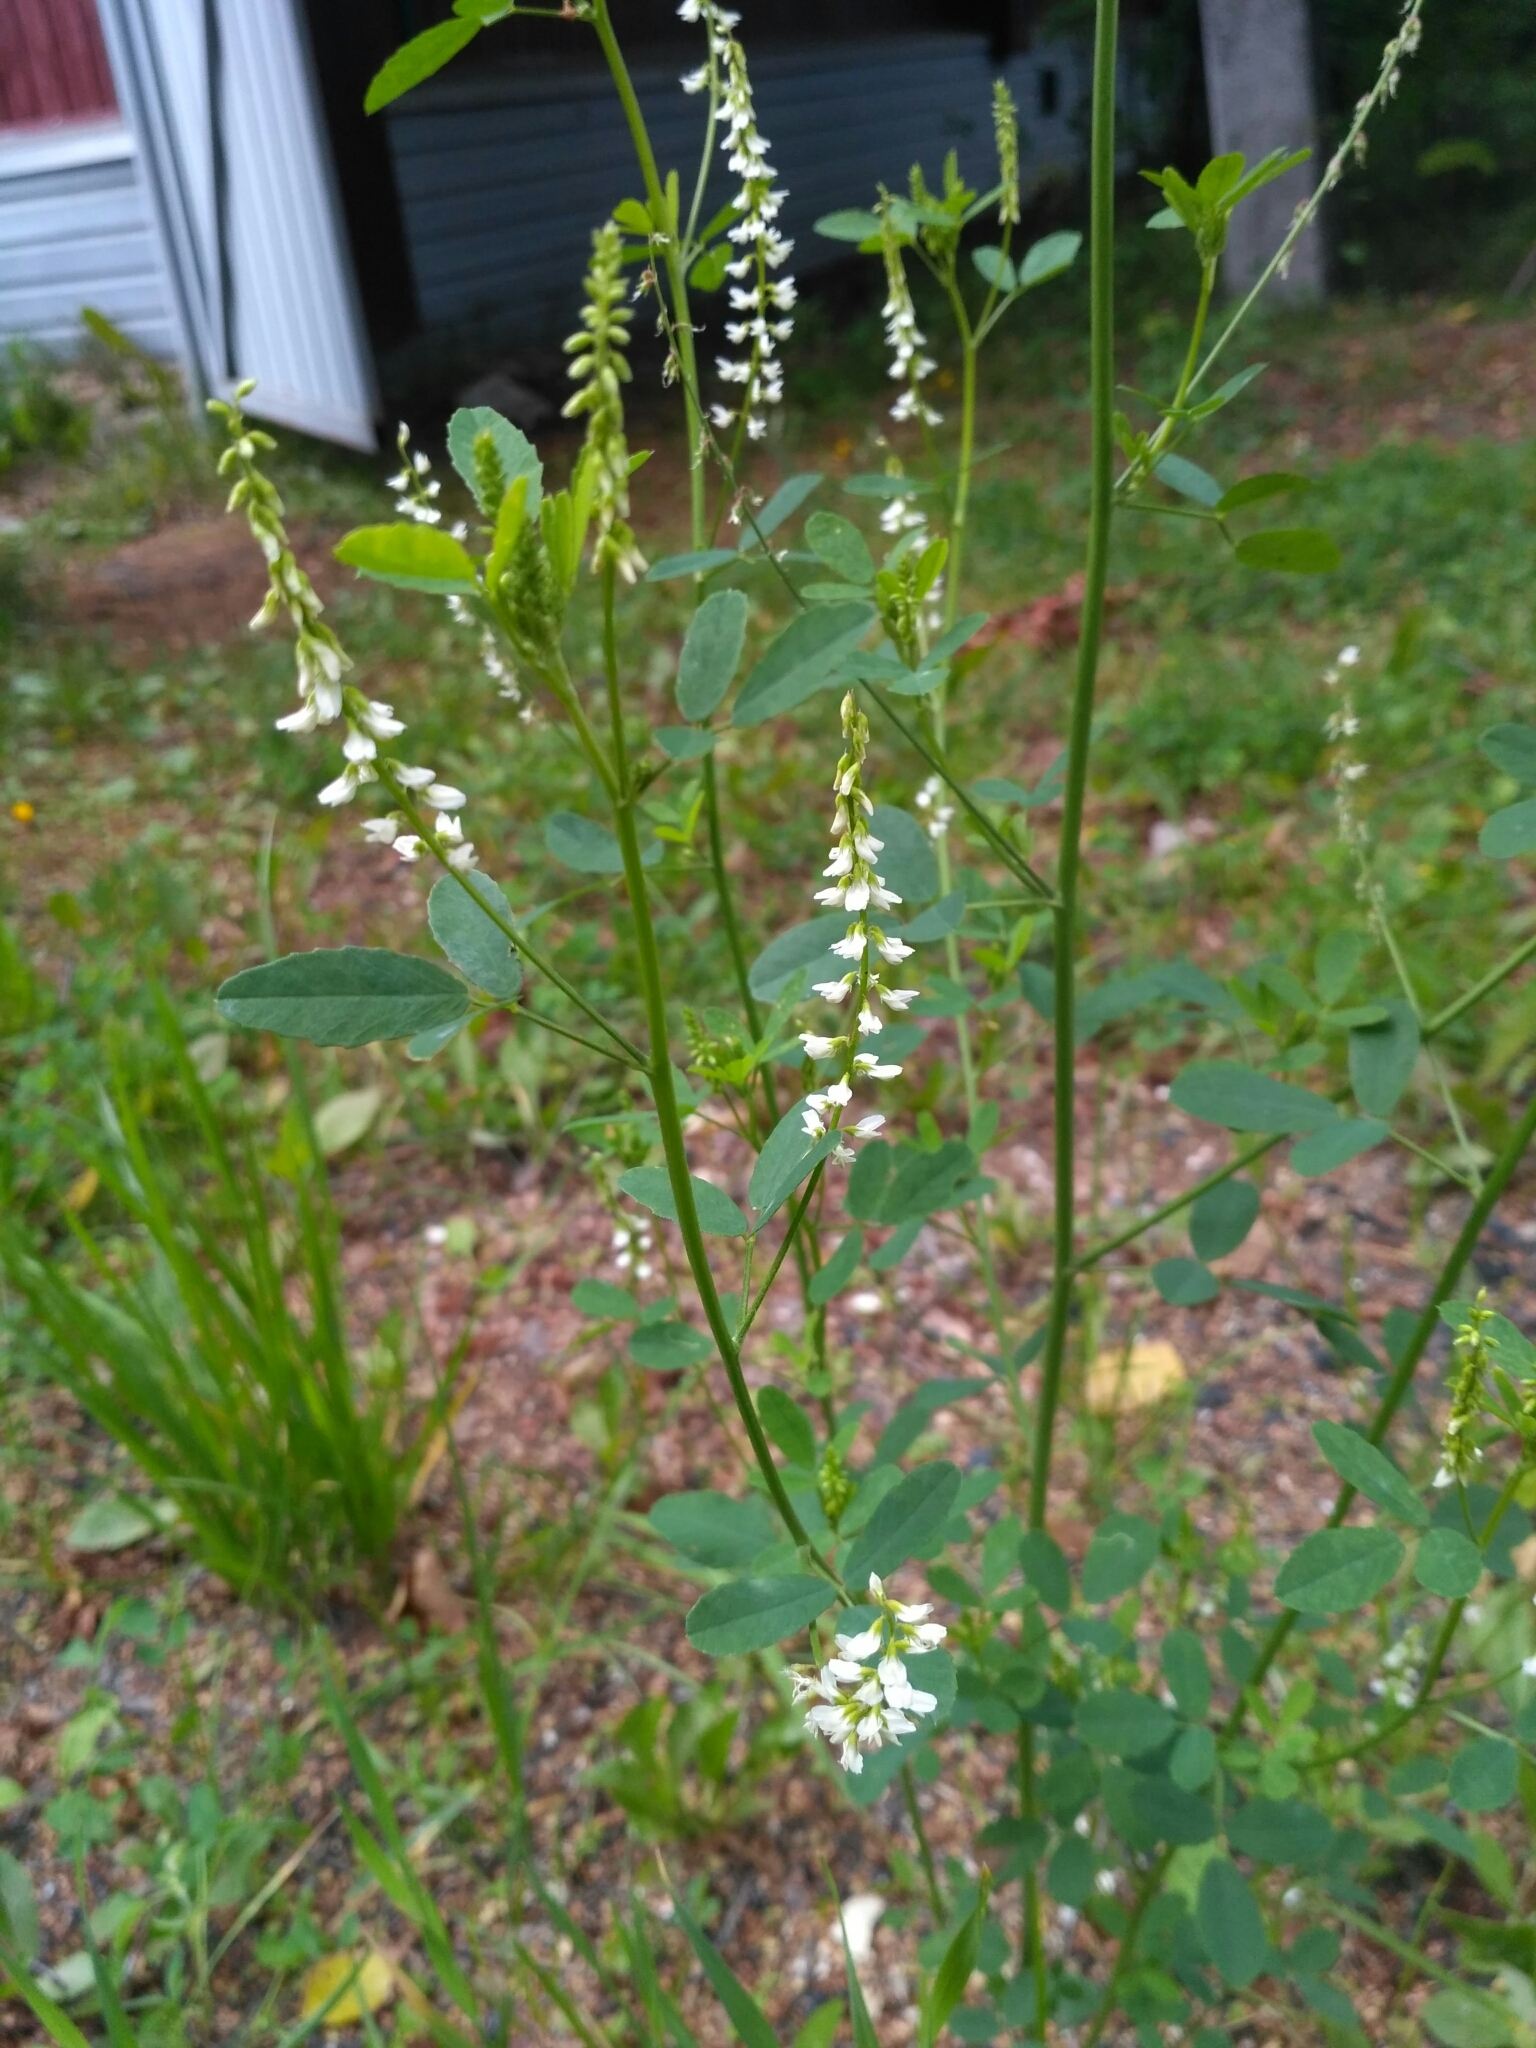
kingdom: Plantae
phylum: Tracheophyta
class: Magnoliopsida
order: Fabales
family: Fabaceae
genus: Melilotus
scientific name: Melilotus albus
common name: White melilot
